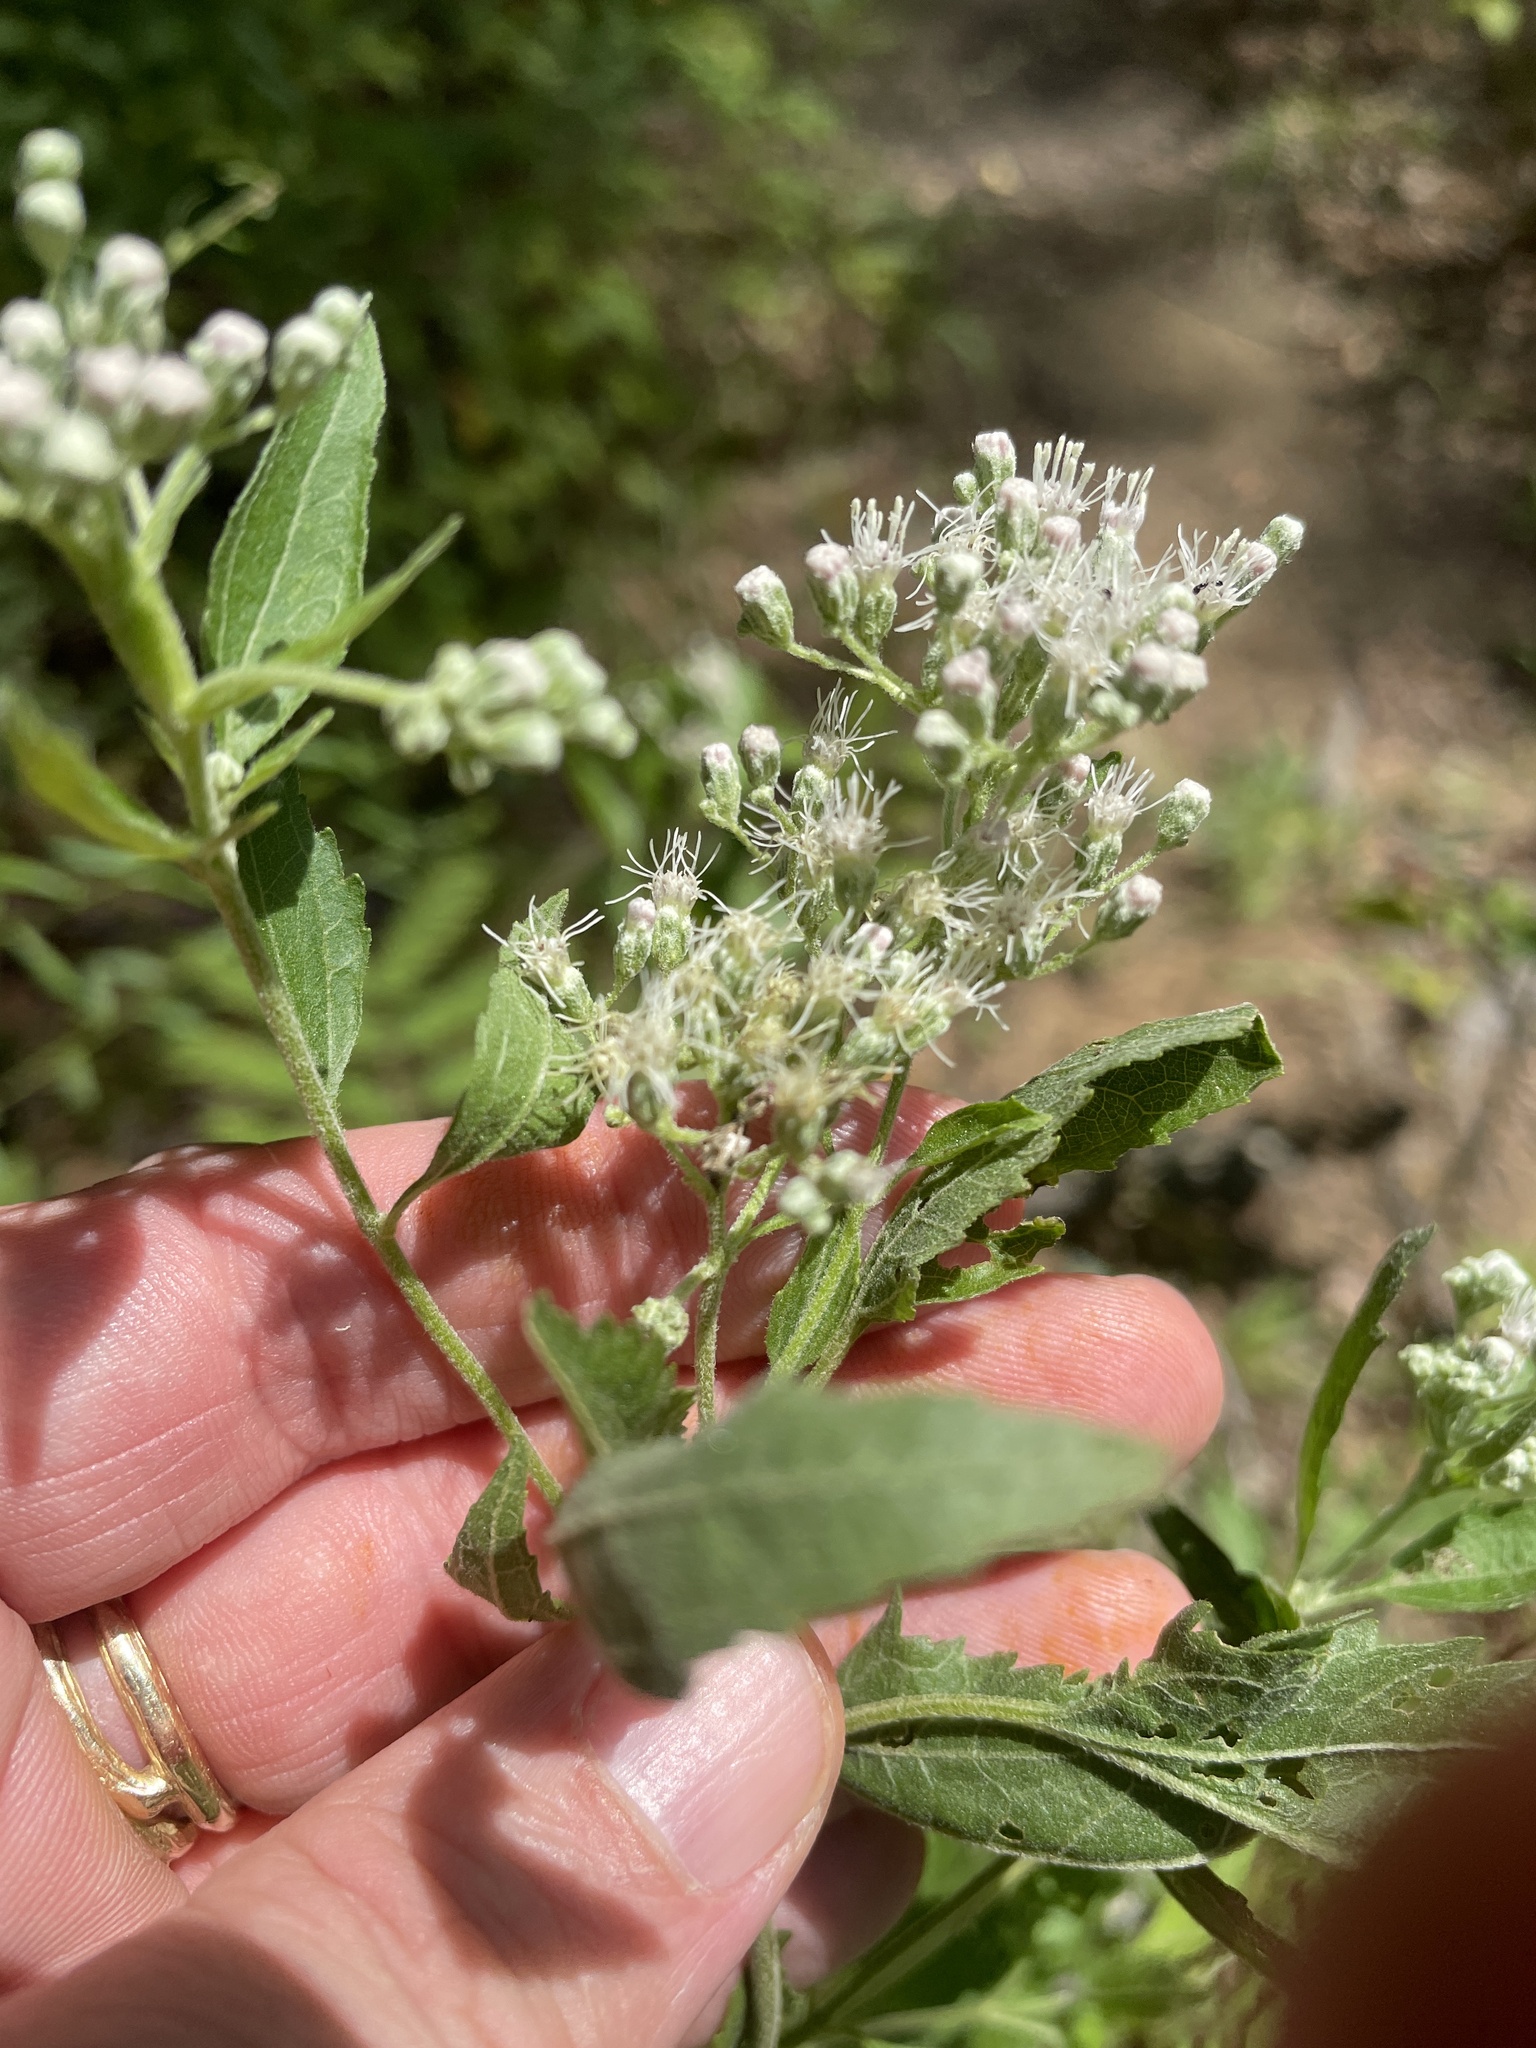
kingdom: Plantae
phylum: Tracheophyta
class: Magnoliopsida
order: Asterales
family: Asteraceae
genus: Eupatorium
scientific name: Eupatorium serotinum
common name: Late boneset
